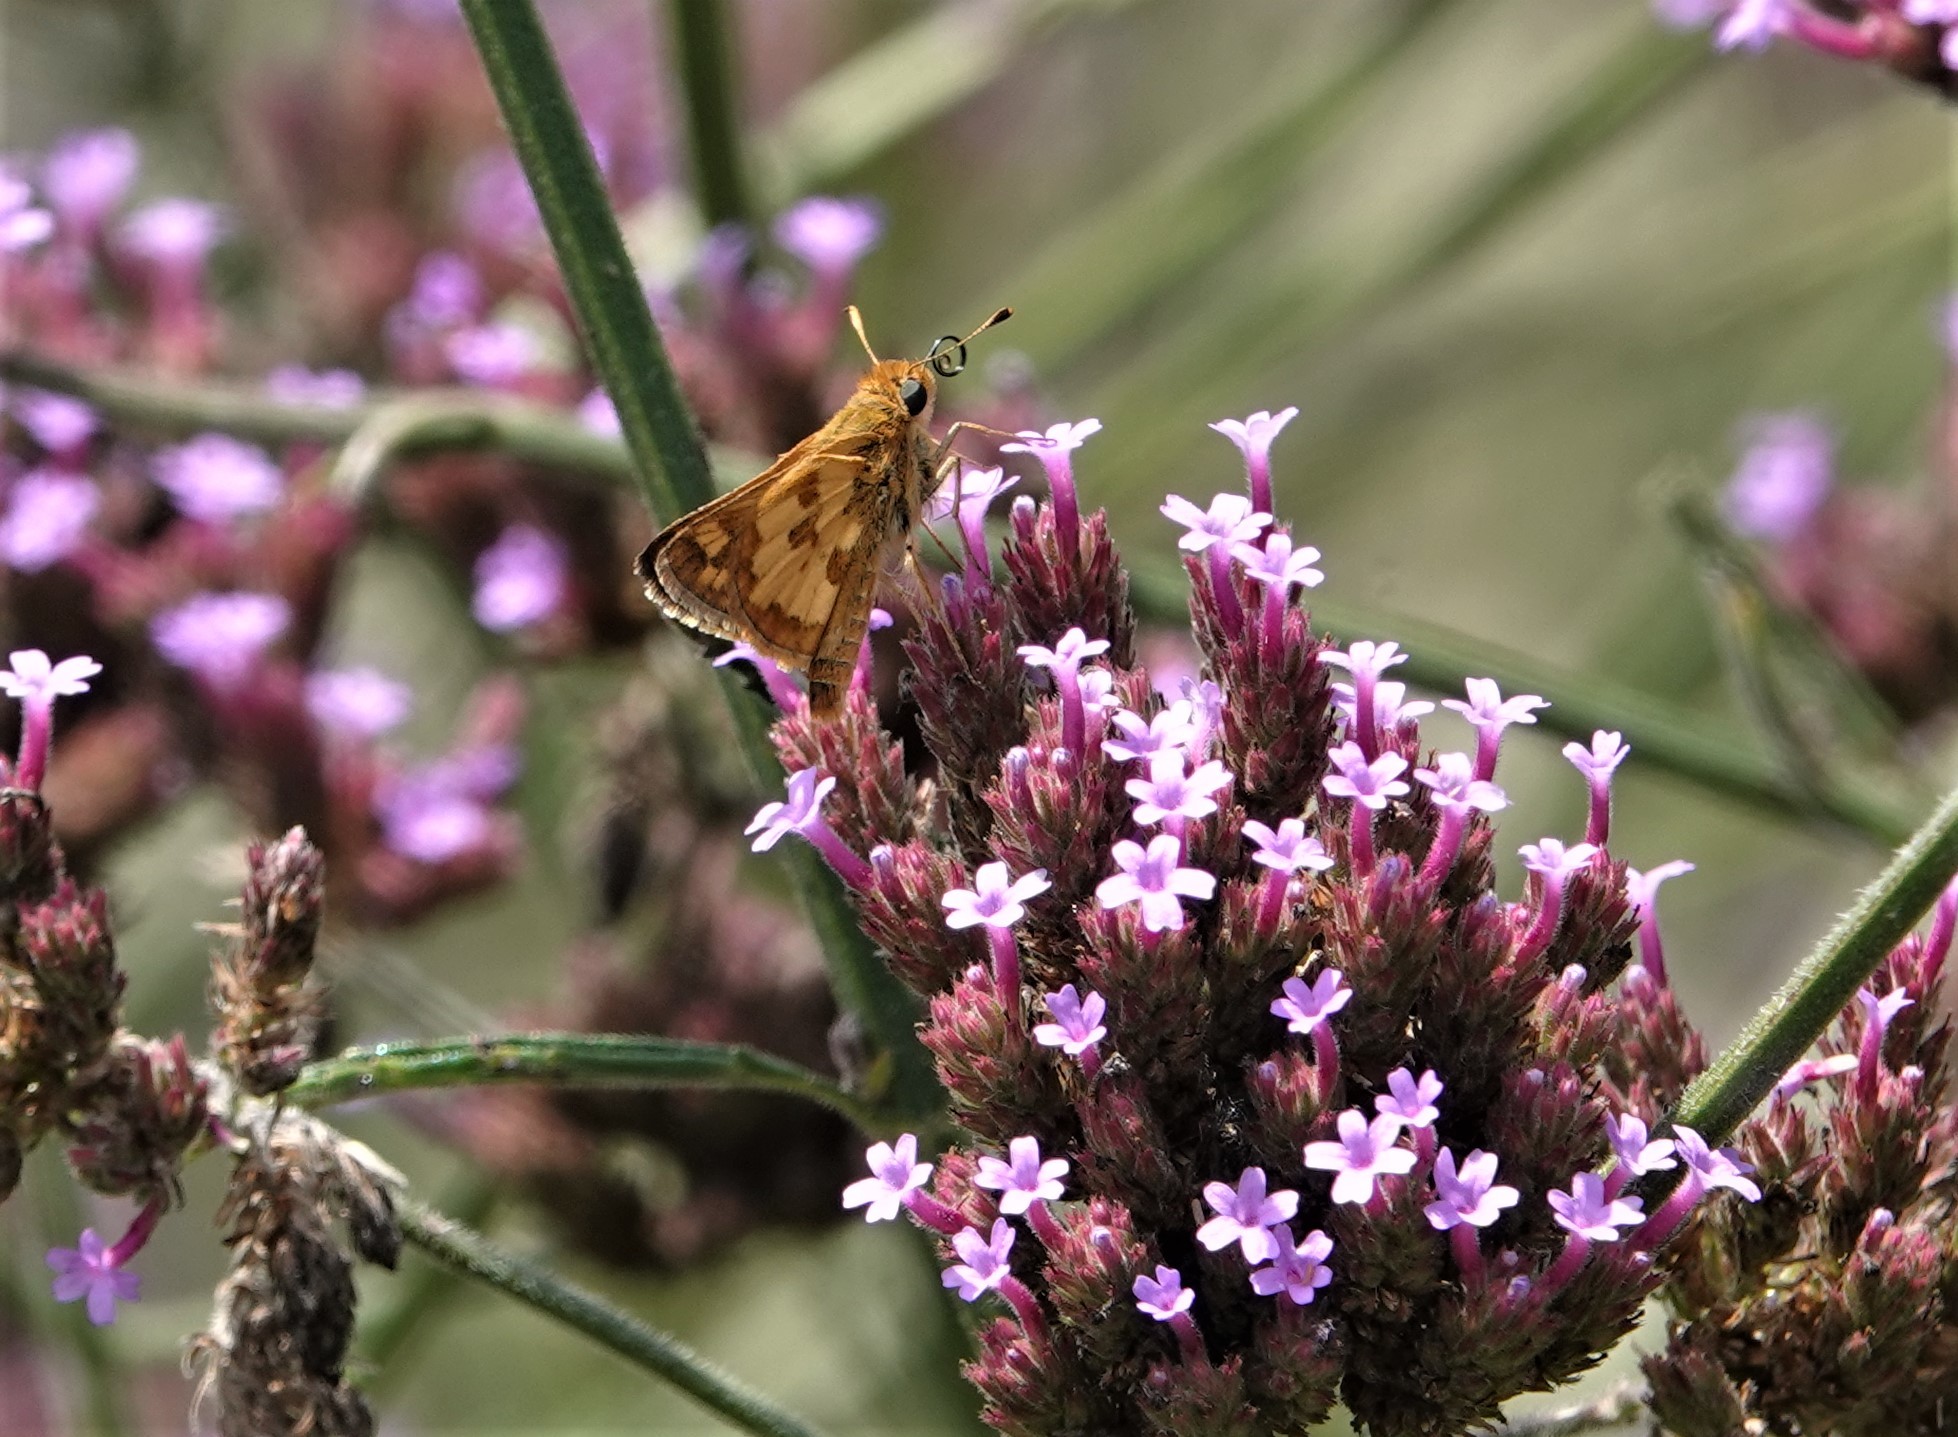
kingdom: Animalia
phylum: Arthropoda
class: Insecta
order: Lepidoptera
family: Hesperiidae
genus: Polites
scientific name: Polites coras
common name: Peck's skipper
